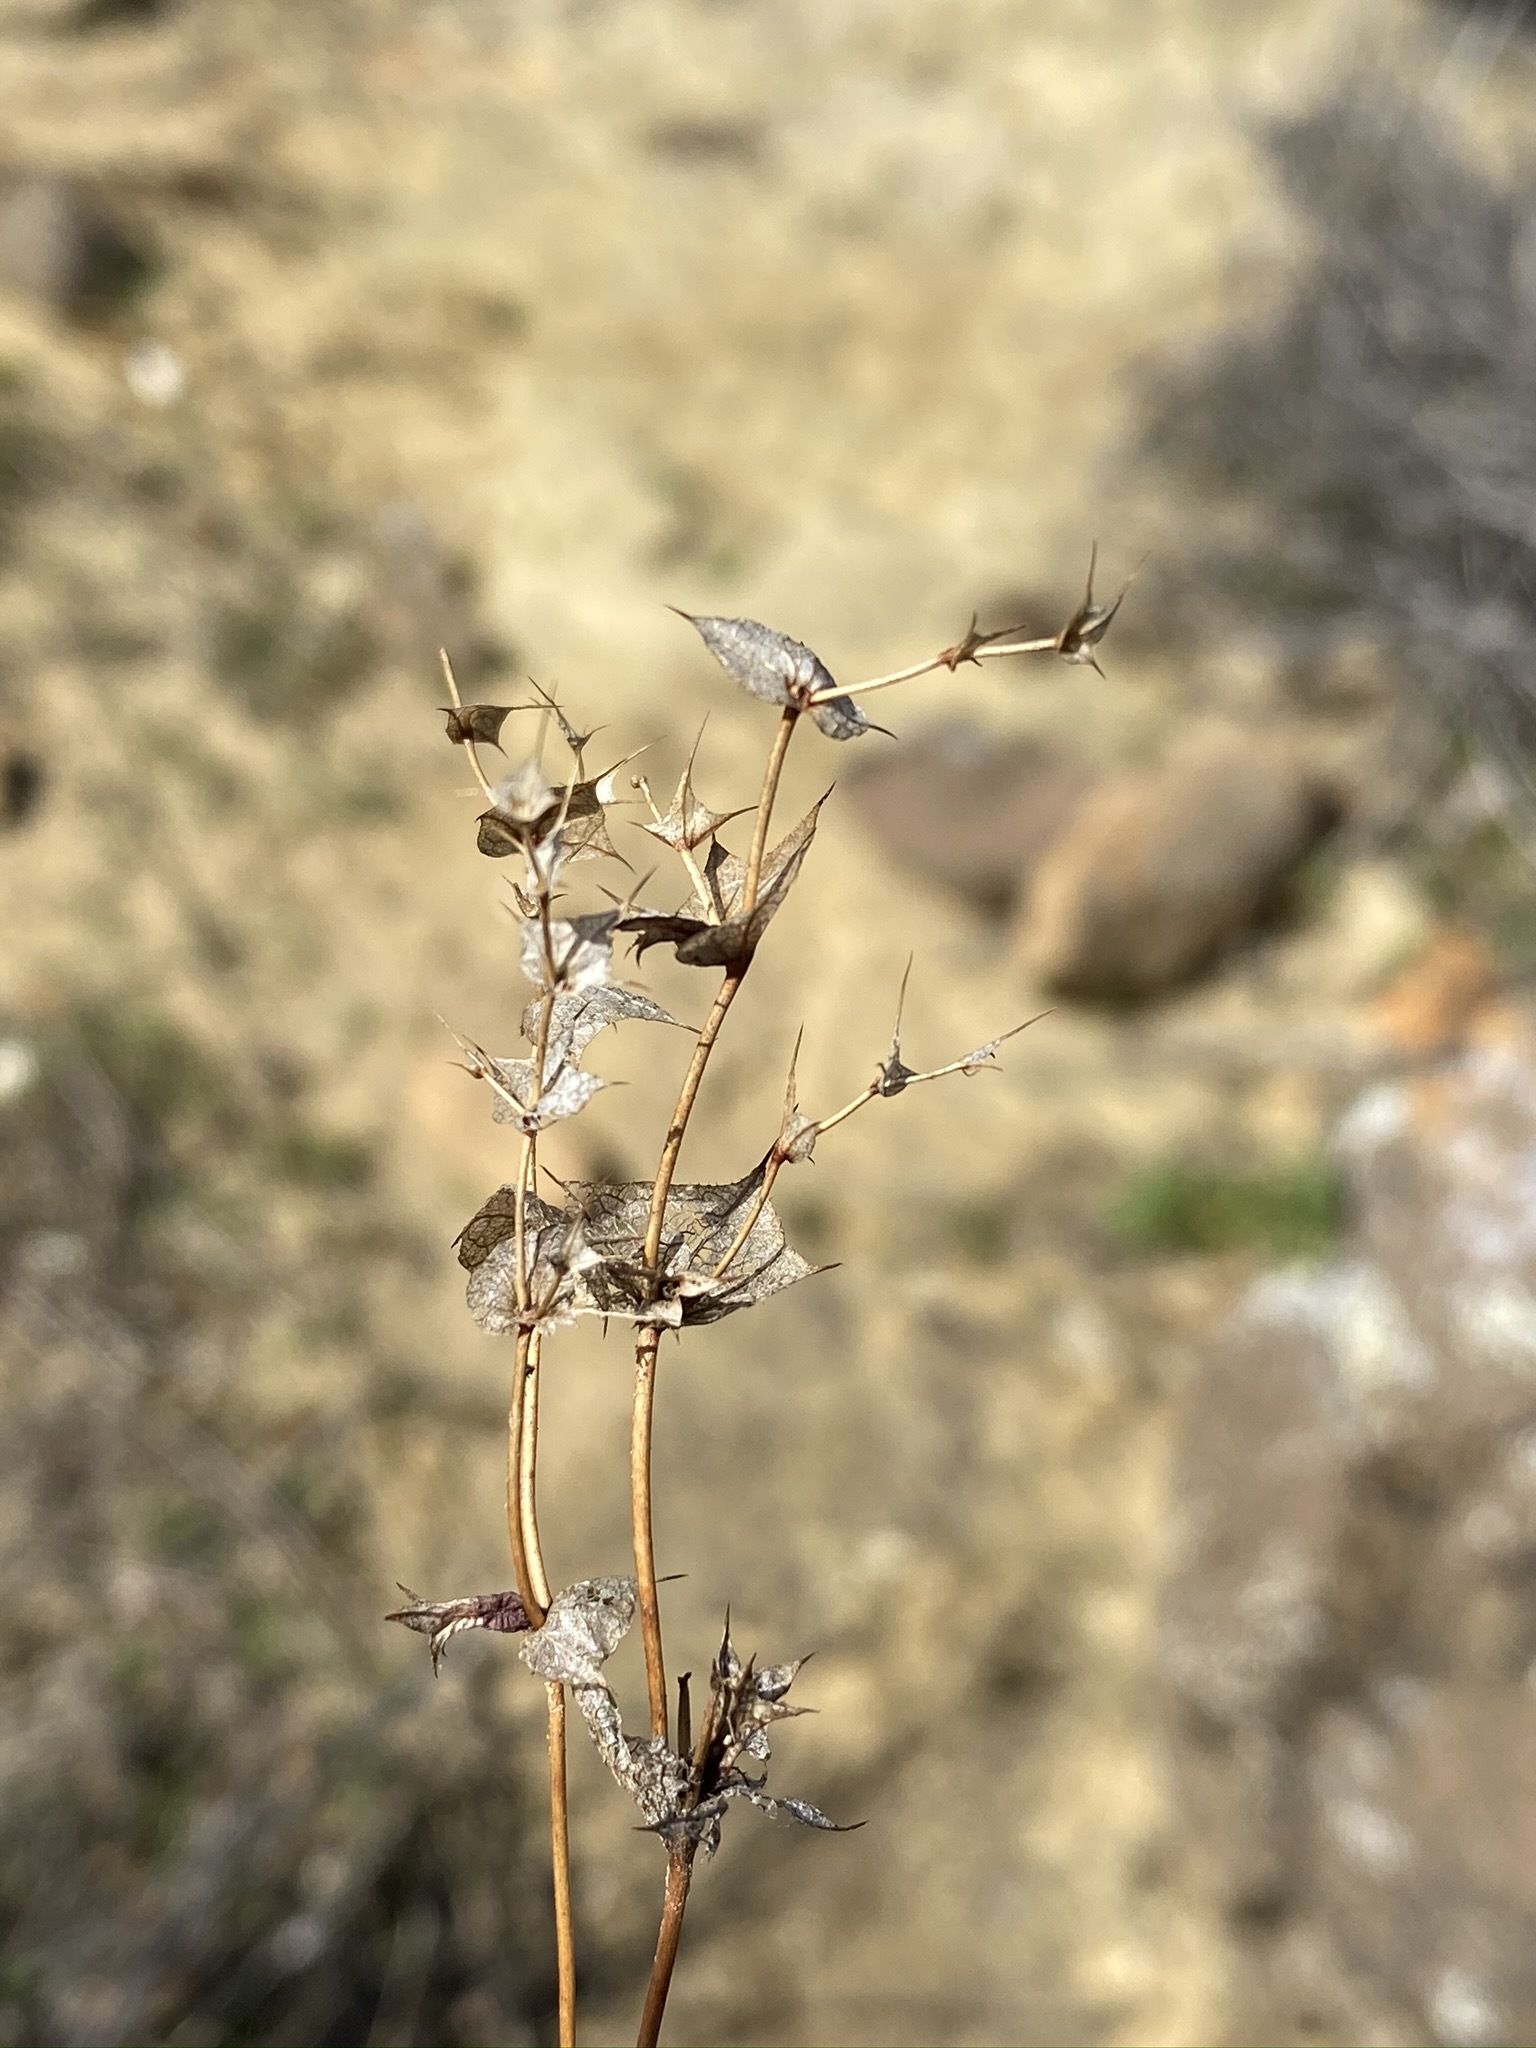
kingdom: Plantae
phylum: Tracheophyta
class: Magnoliopsida
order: Caryophyllales
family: Polygonaceae
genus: Mucronea
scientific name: Mucronea perfoliata
